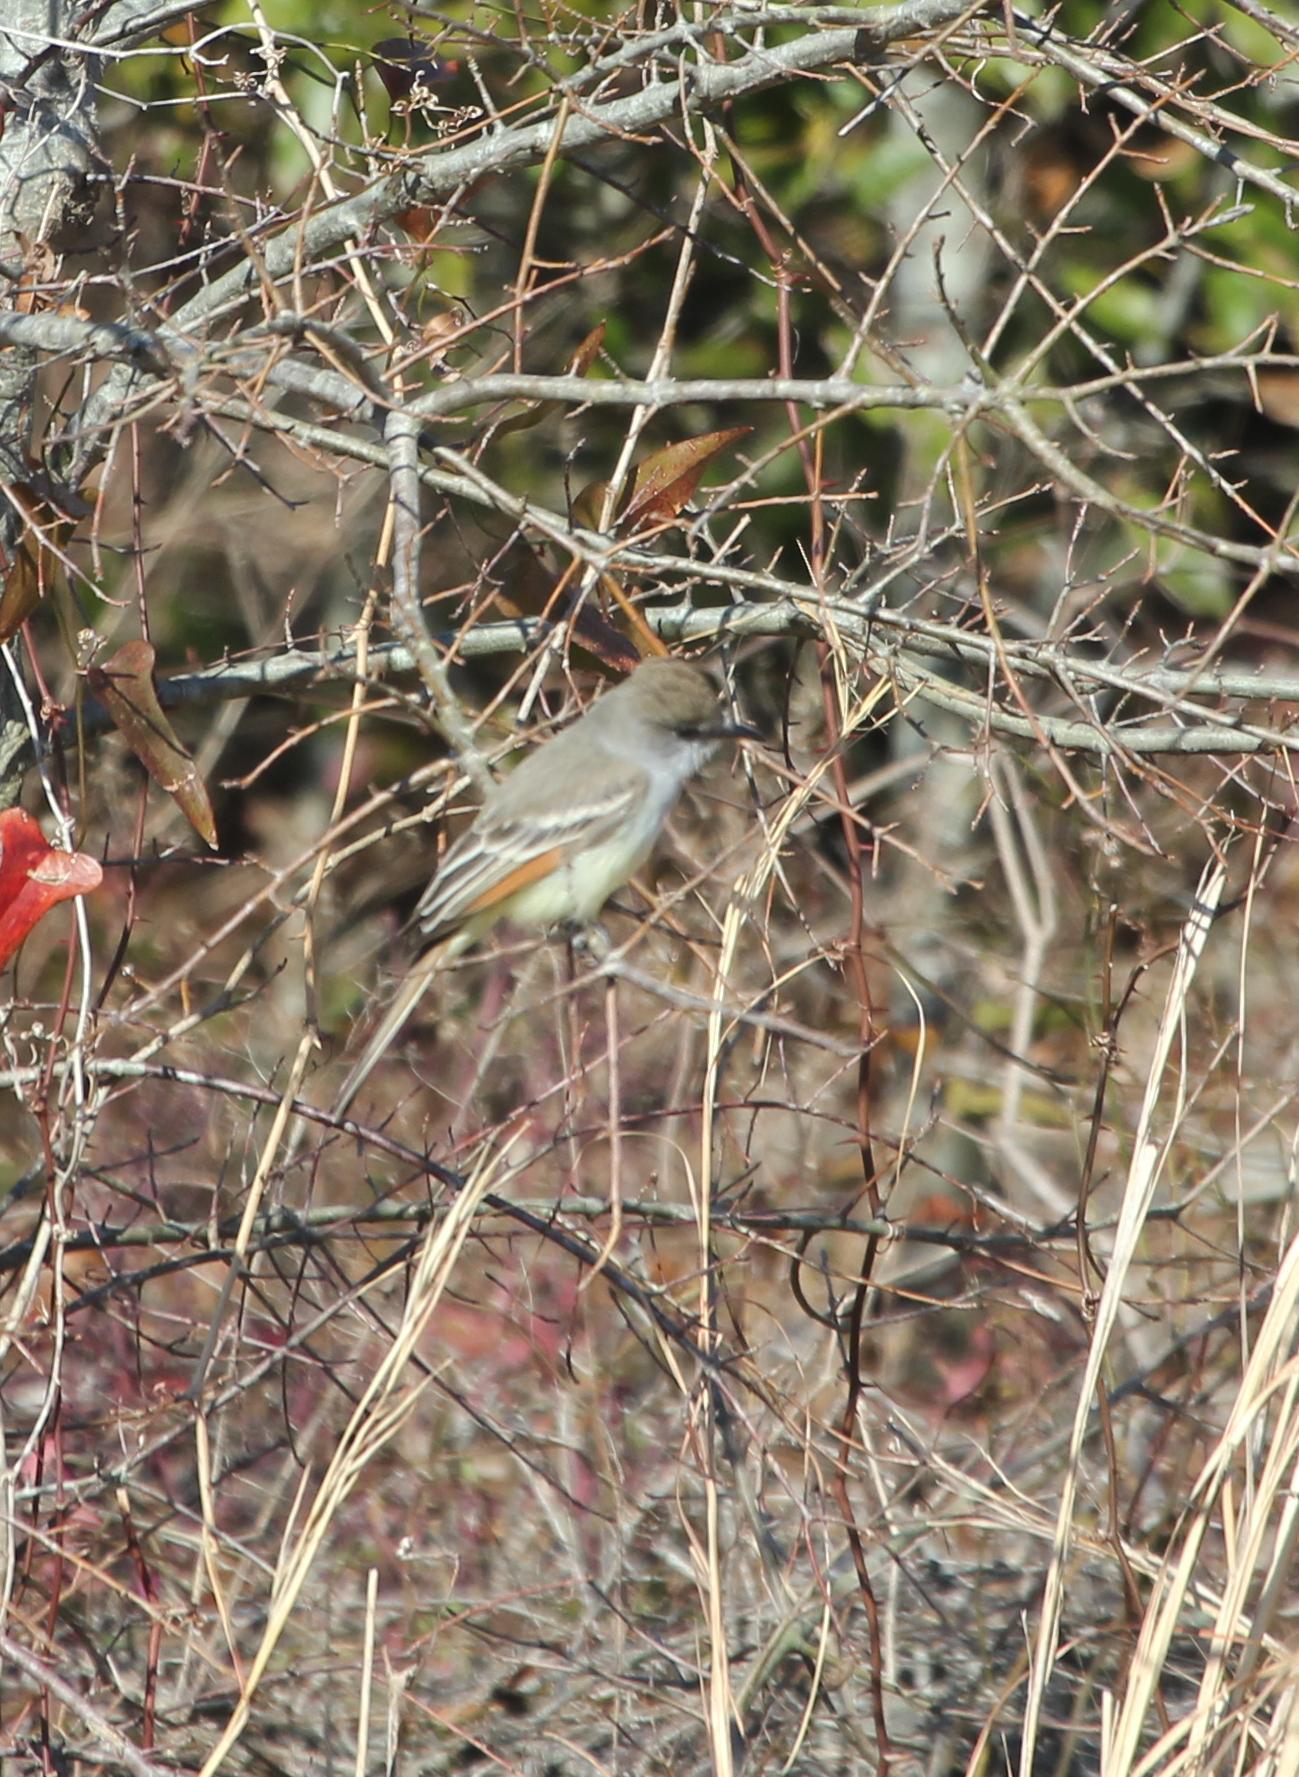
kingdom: Animalia
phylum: Chordata
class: Aves
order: Passeriformes
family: Tyrannidae
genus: Myiarchus
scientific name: Myiarchus cinerascens
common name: Ash-throated flycatcher
